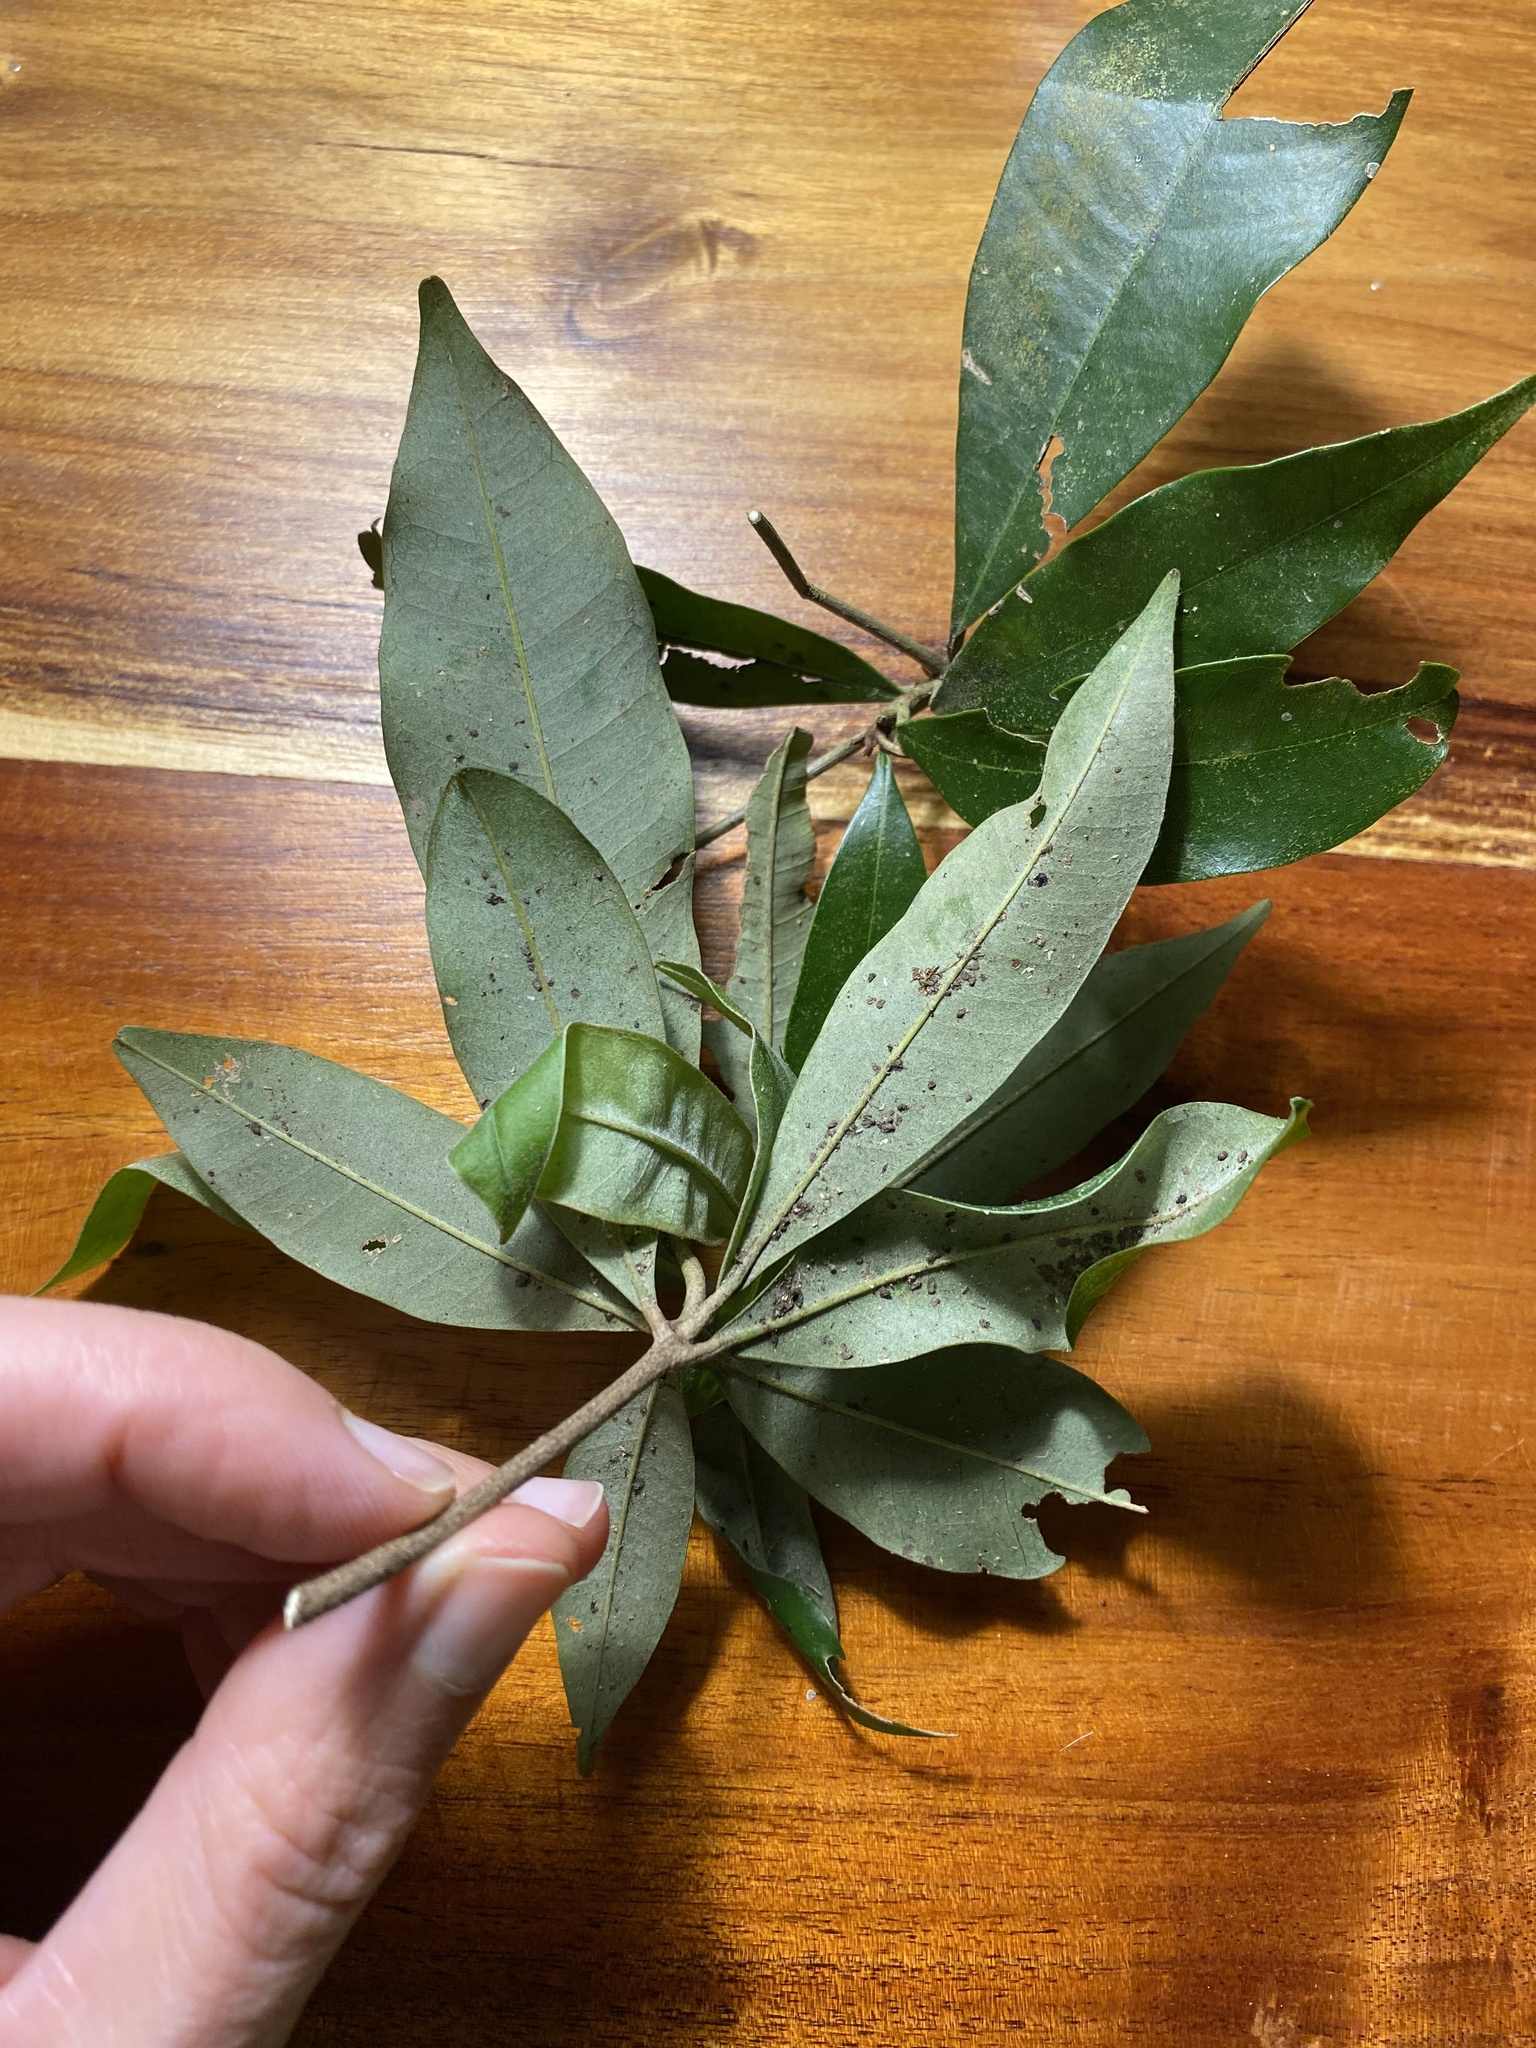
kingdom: Plantae
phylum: Tracheophyta
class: Magnoliopsida
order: Ericales
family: Sapotaceae
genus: Englerophytum
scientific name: Englerophytum natalense
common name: Silver-leaved milkplum
